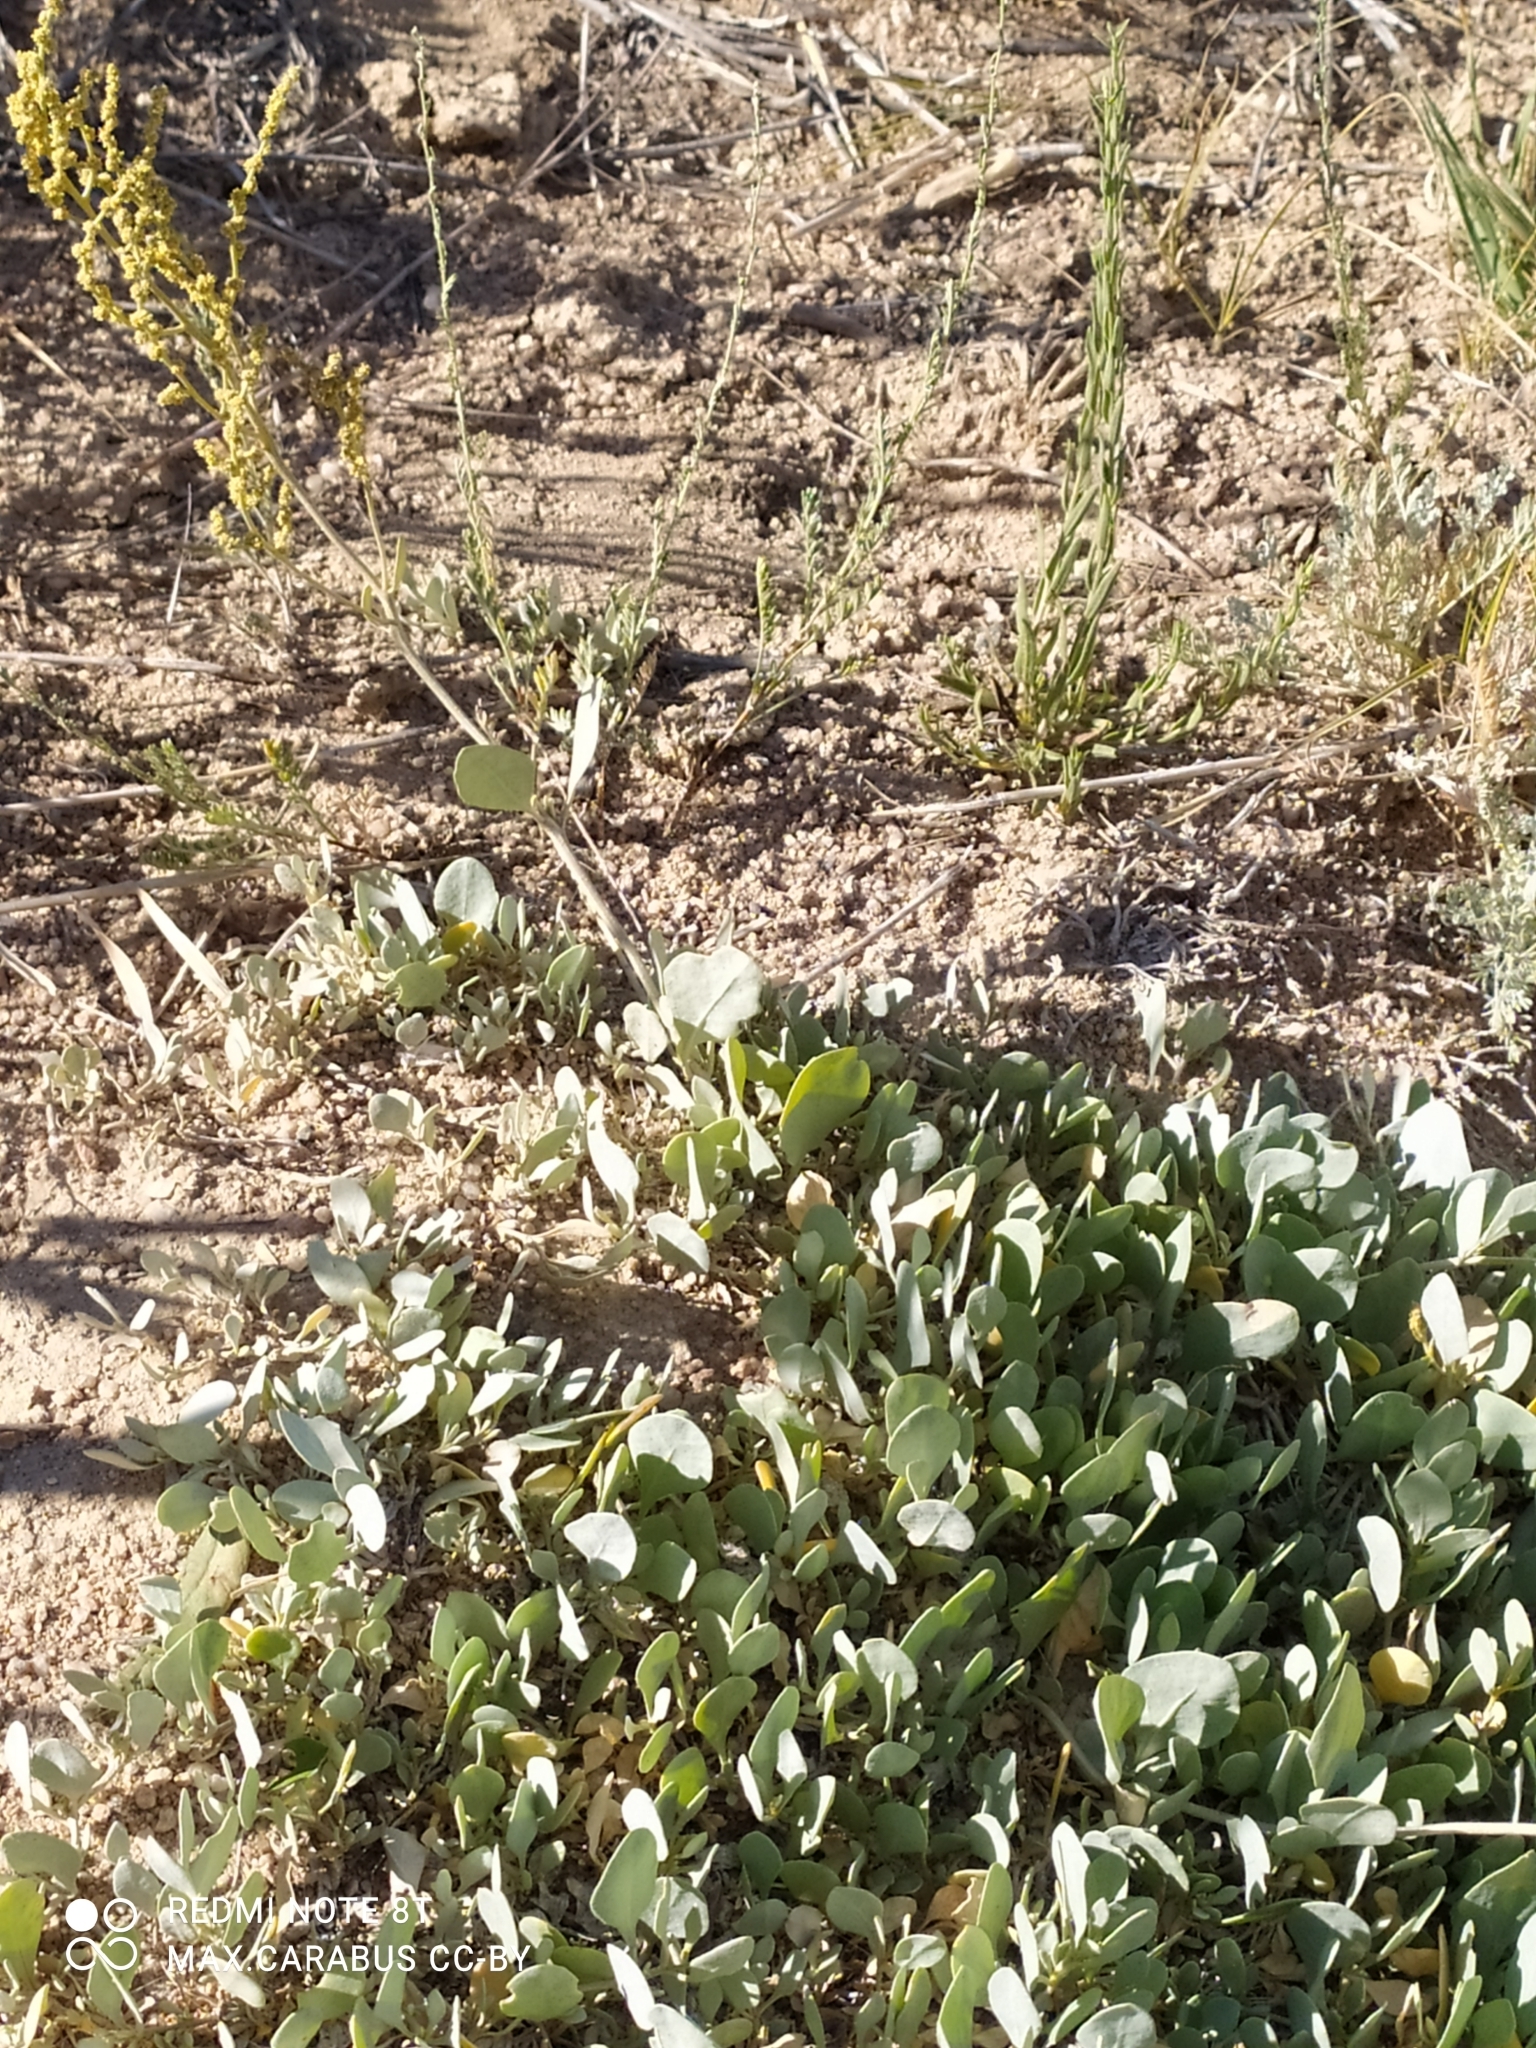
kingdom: Plantae
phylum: Tracheophyta
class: Magnoliopsida
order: Caryophyllales
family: Amaranthaceae
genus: Halimione
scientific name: Halimione verrucifera
